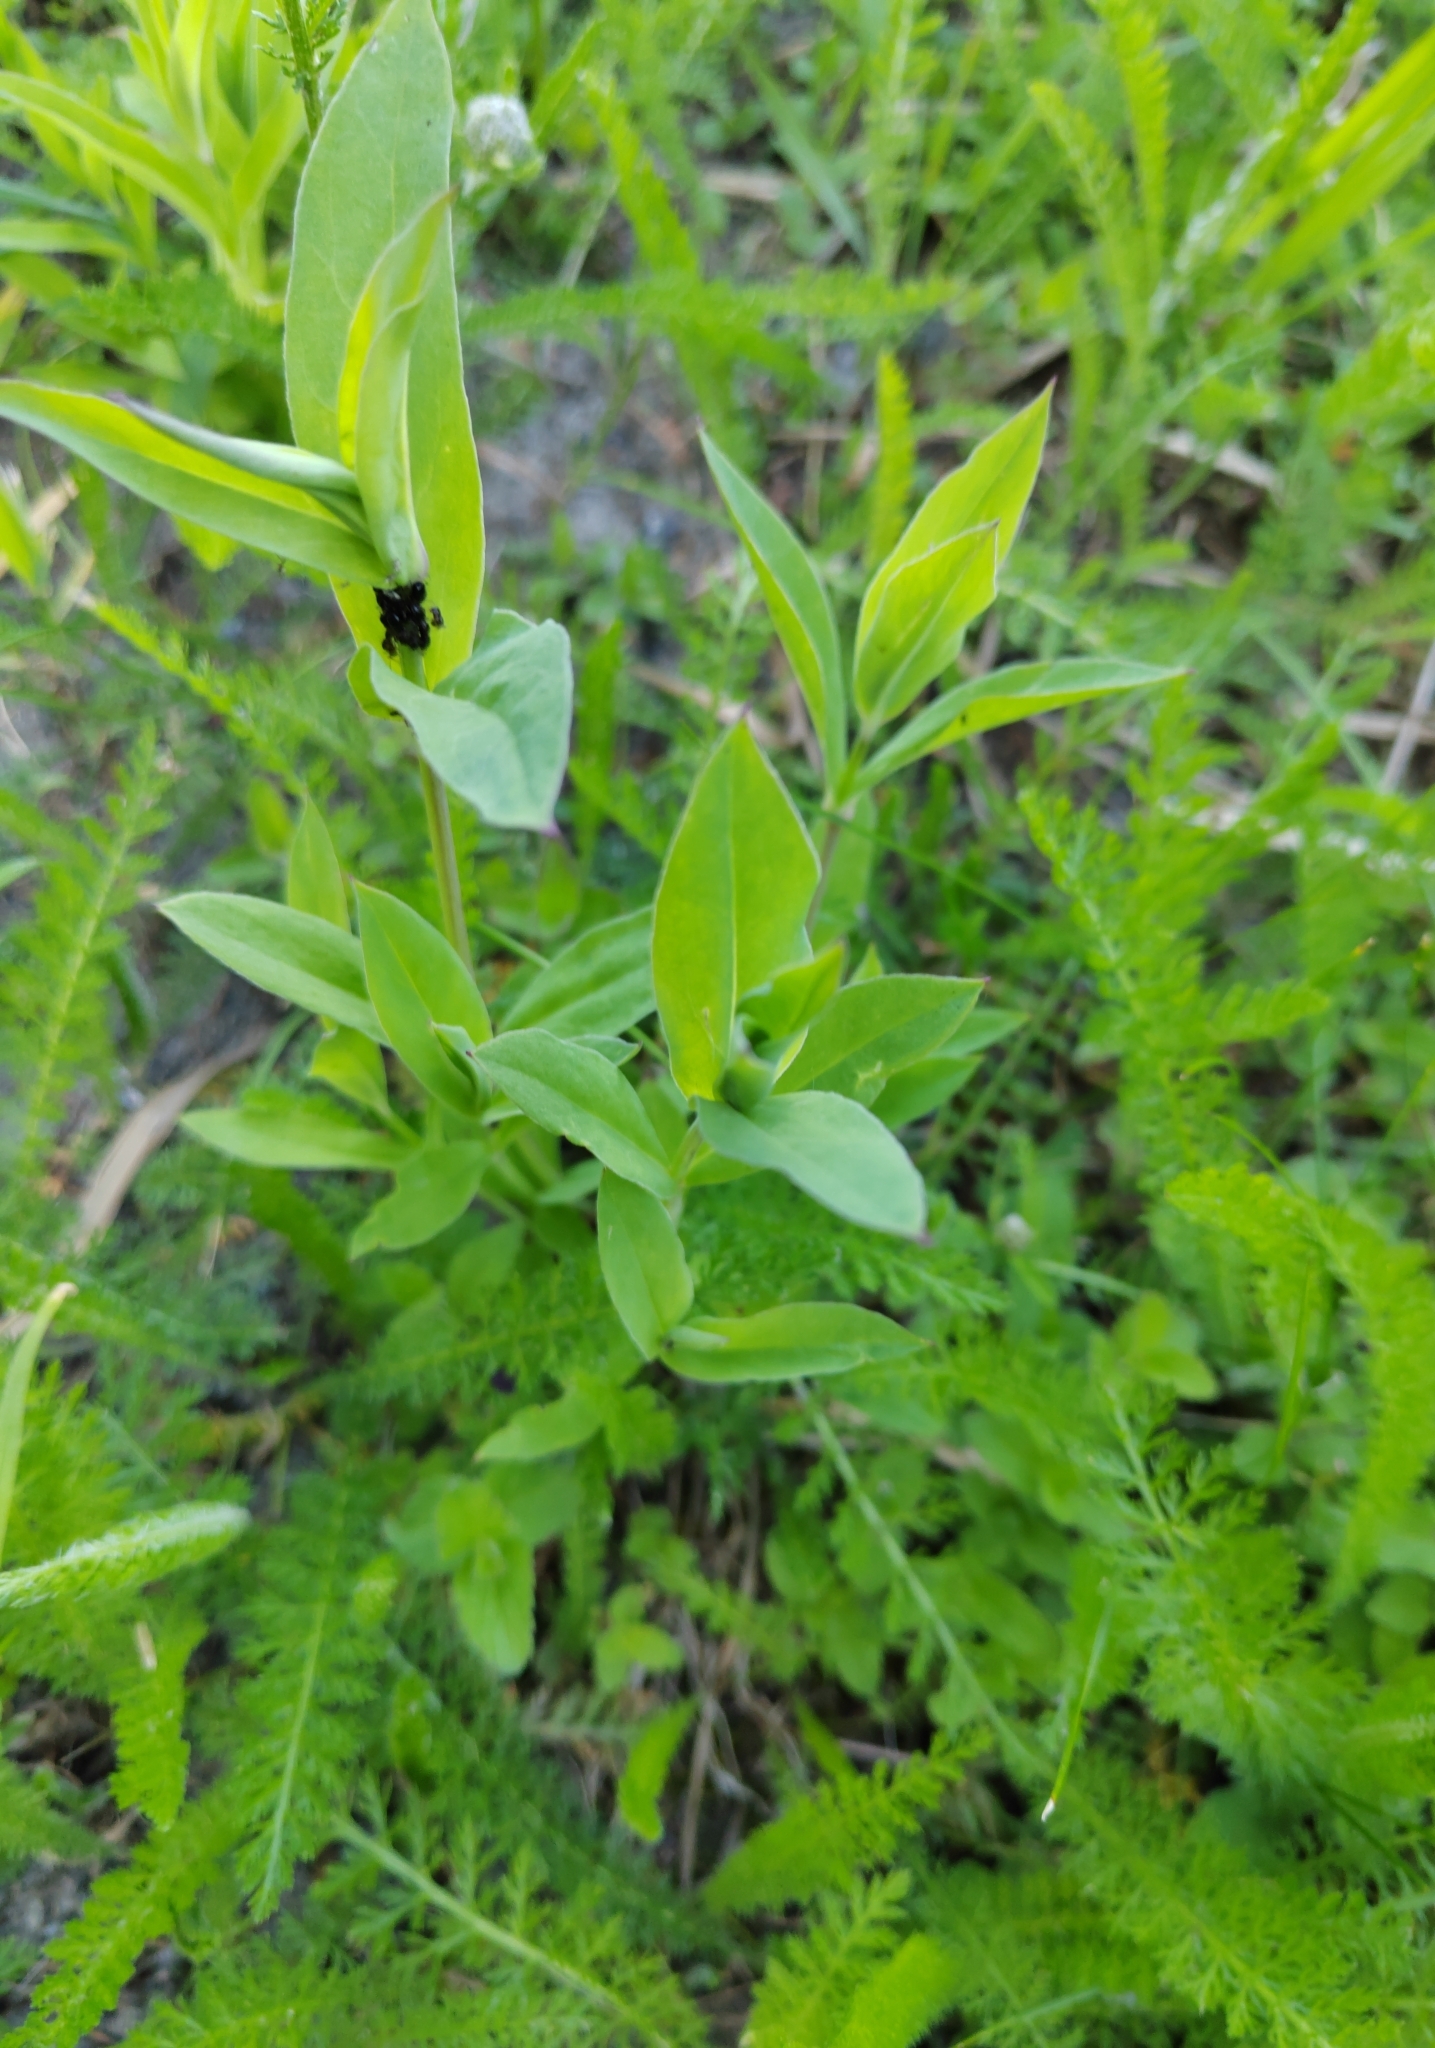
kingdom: Plantae
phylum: Tracheophyta
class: Magnoliopsida
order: Caryophyllales
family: Caryophyllaceae
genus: Silene
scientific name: Silene vulgaris
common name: Bladder campion
